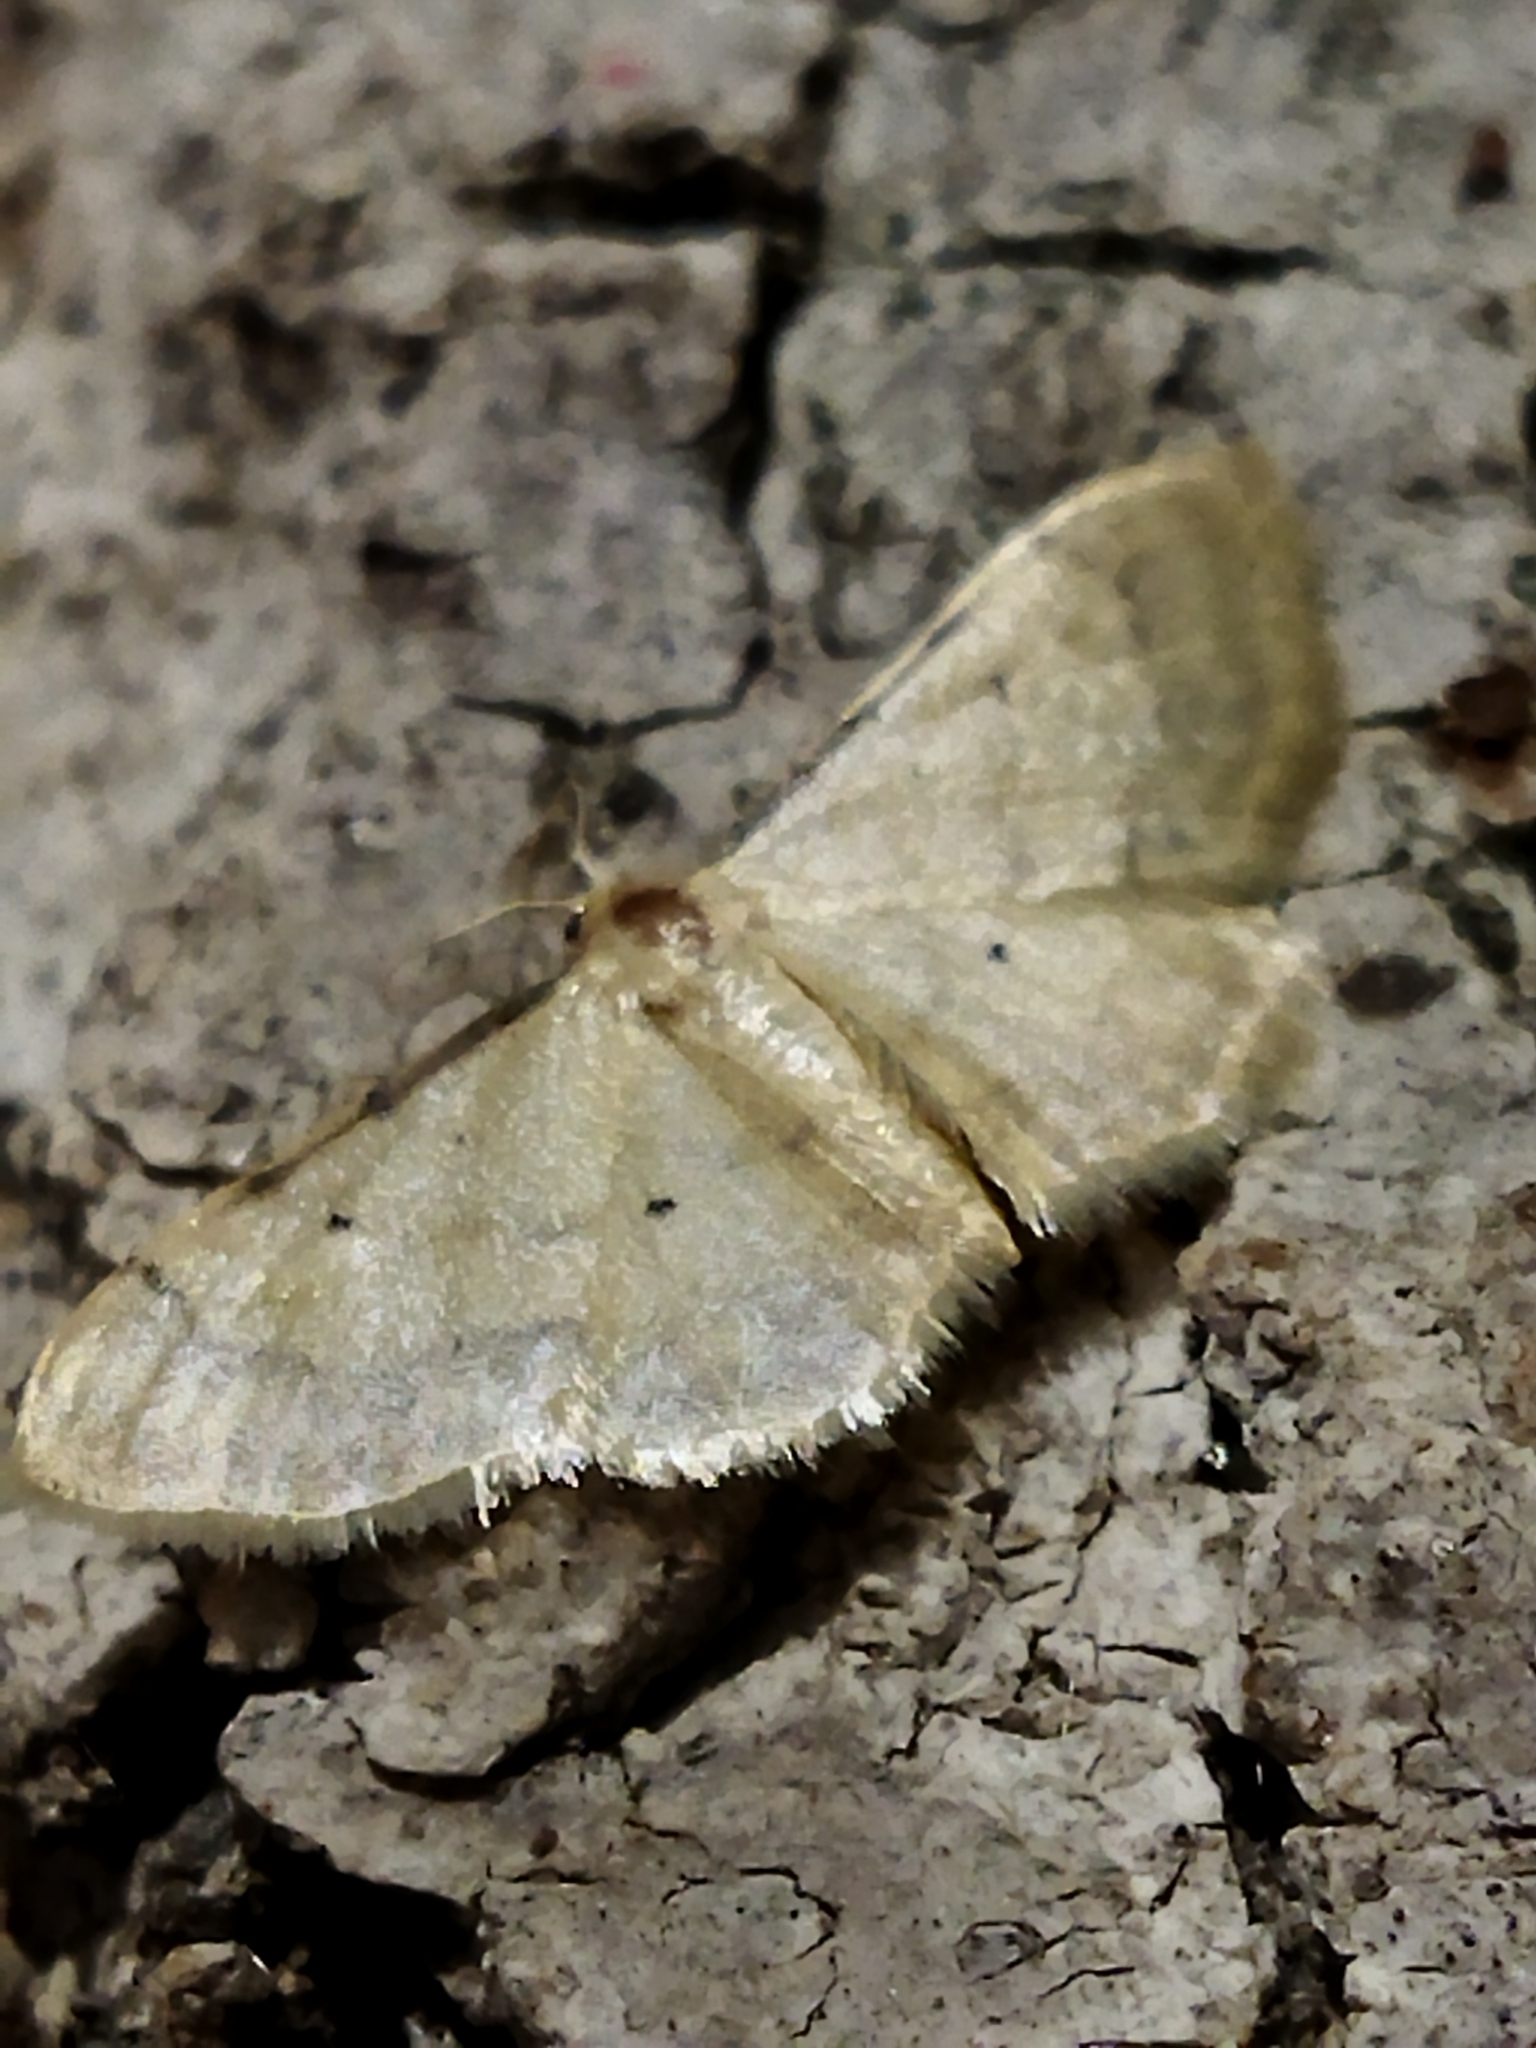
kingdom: Animalia
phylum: Arthropoda
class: Insecta
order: Lepidoptera
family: Geometridae
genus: Idaea
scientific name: Idaea politaria
